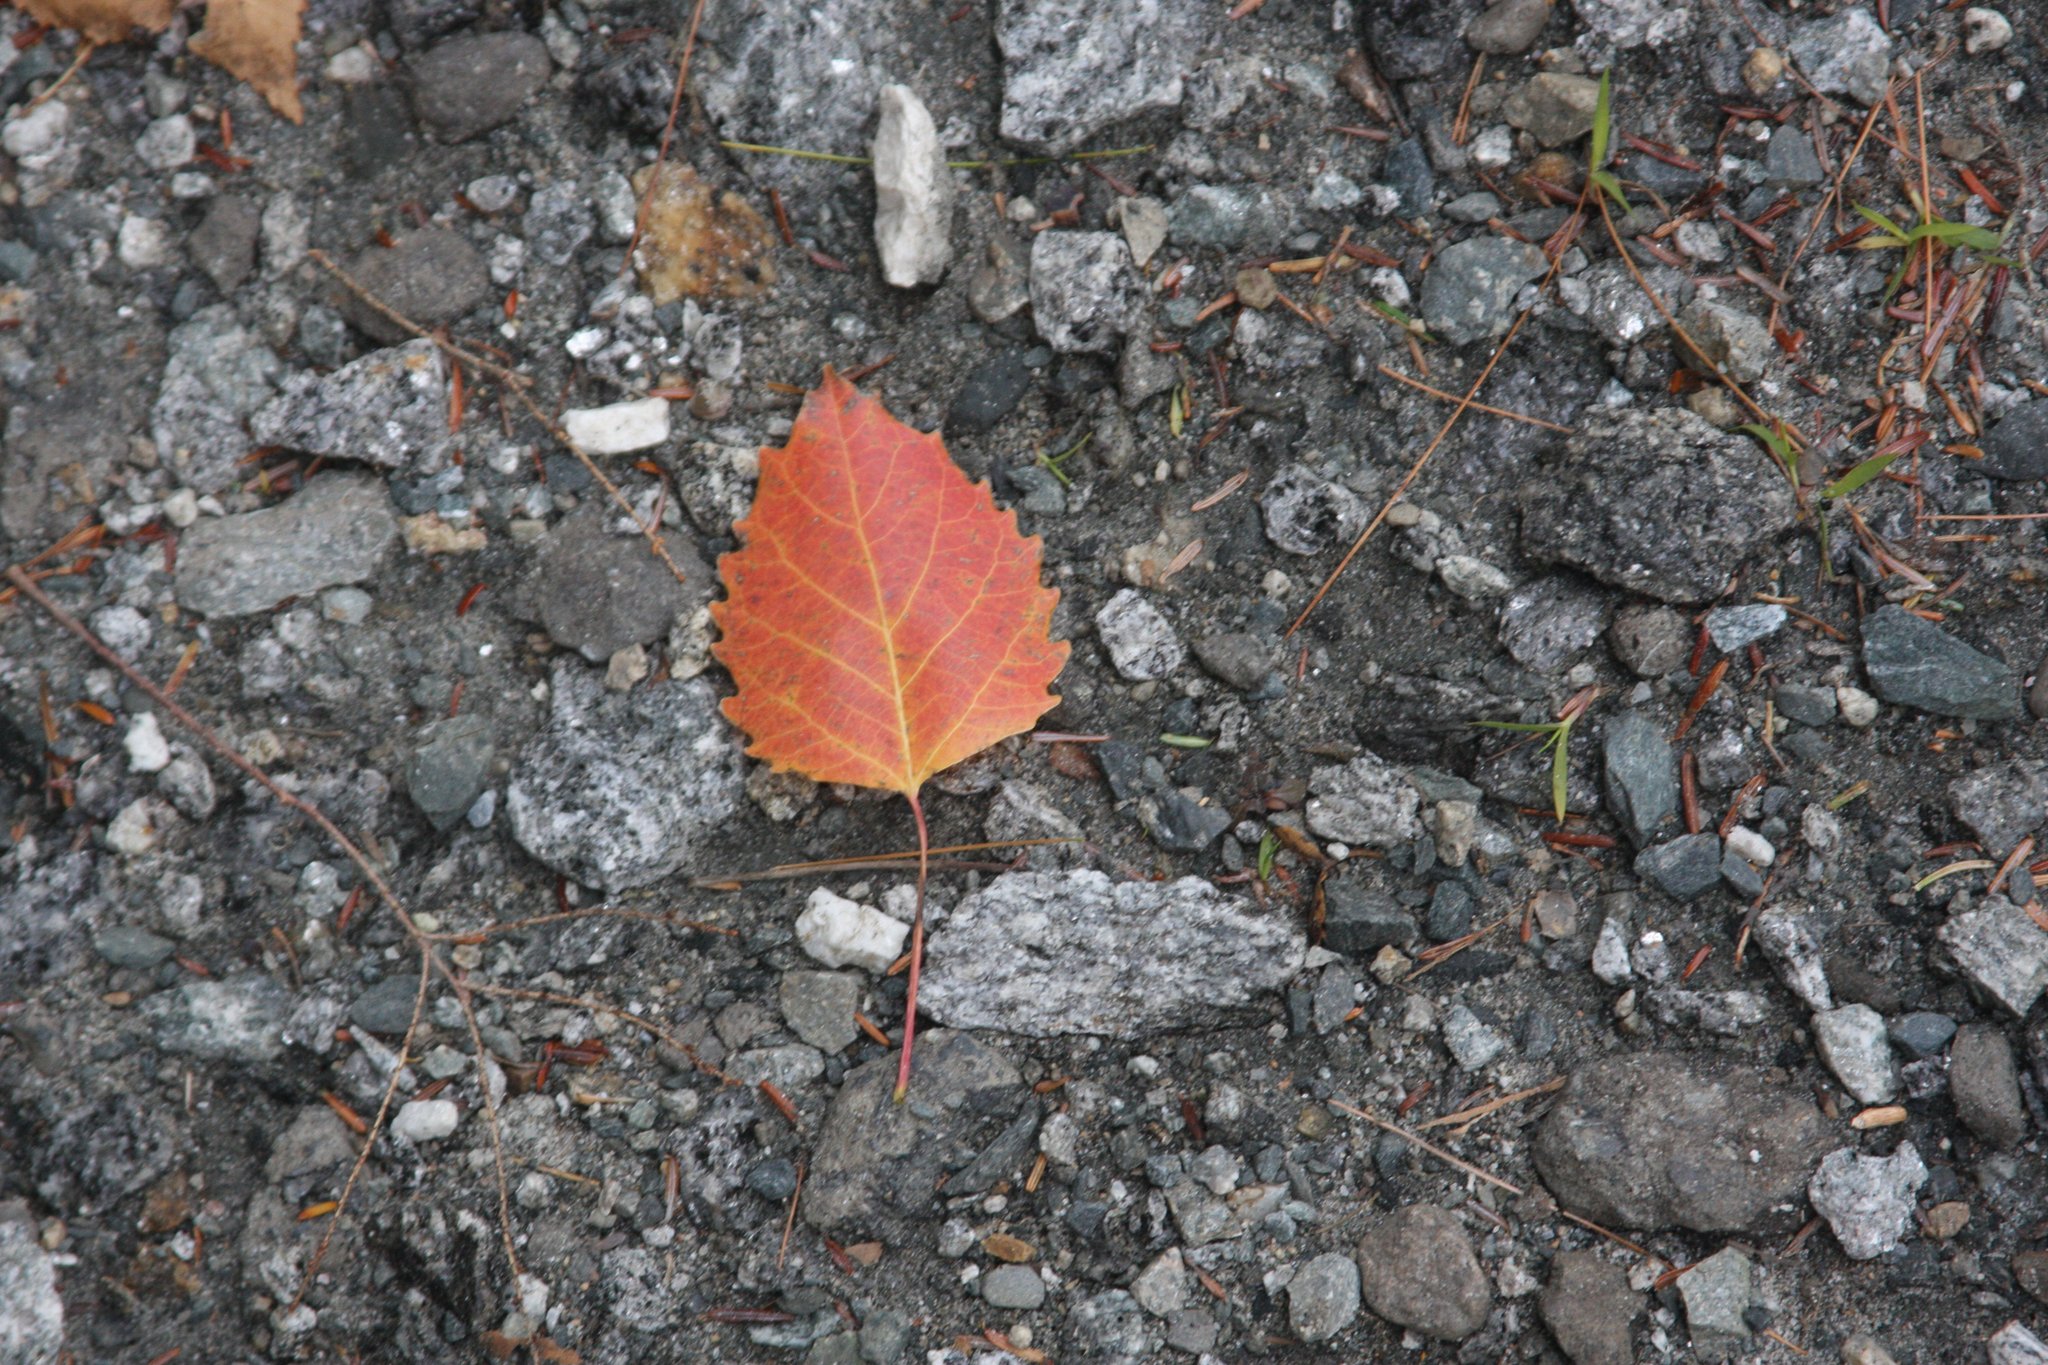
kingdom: Plantae
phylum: Tracheophyta
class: Magnoliopsida
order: Malpighiales
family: Salicaceae
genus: Populus
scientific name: Populus grandidentata
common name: Bigtooth aspen
